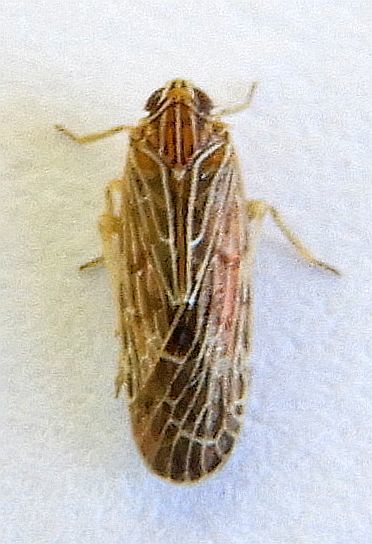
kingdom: Animalia
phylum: Arthropoda
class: Insecta
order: Hemiptera
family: Achilidae
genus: Momar
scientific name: Momar fumidus
